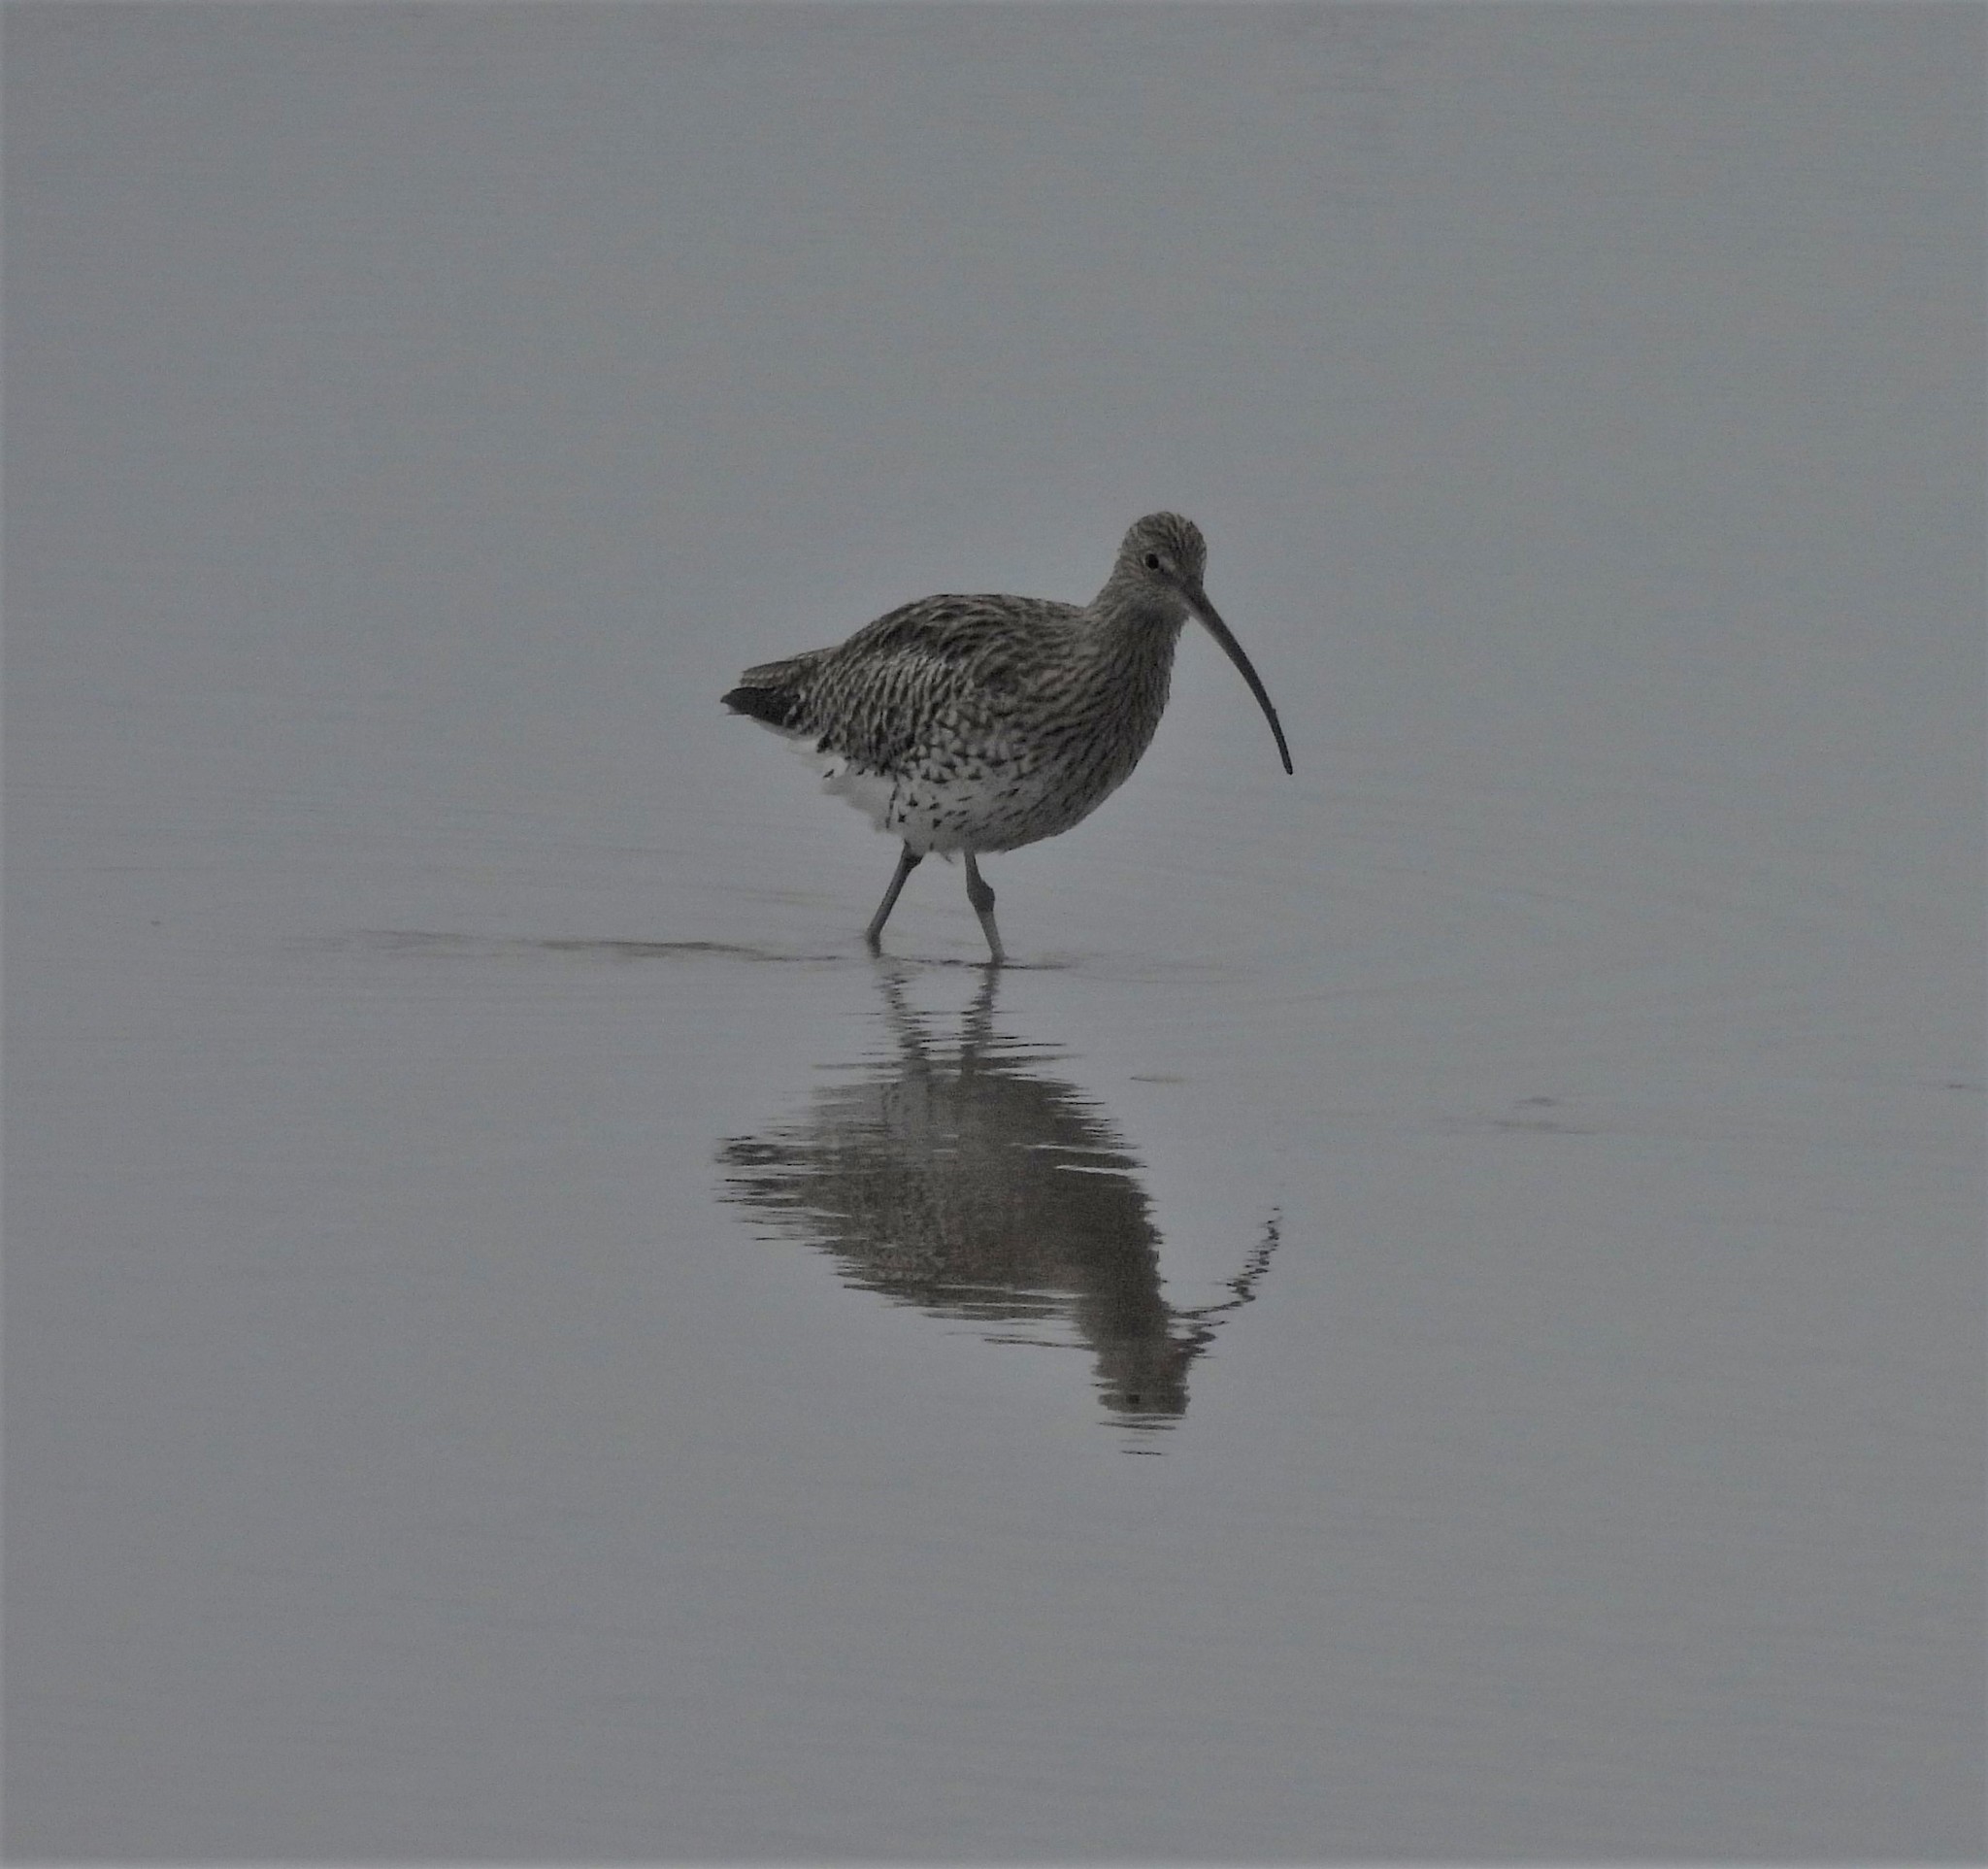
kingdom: Animalia
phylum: Chordata
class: Aves
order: Charadriiformes
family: Scolopacidae
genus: Numenius
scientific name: Numenius arquata
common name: Eurasian curlew
